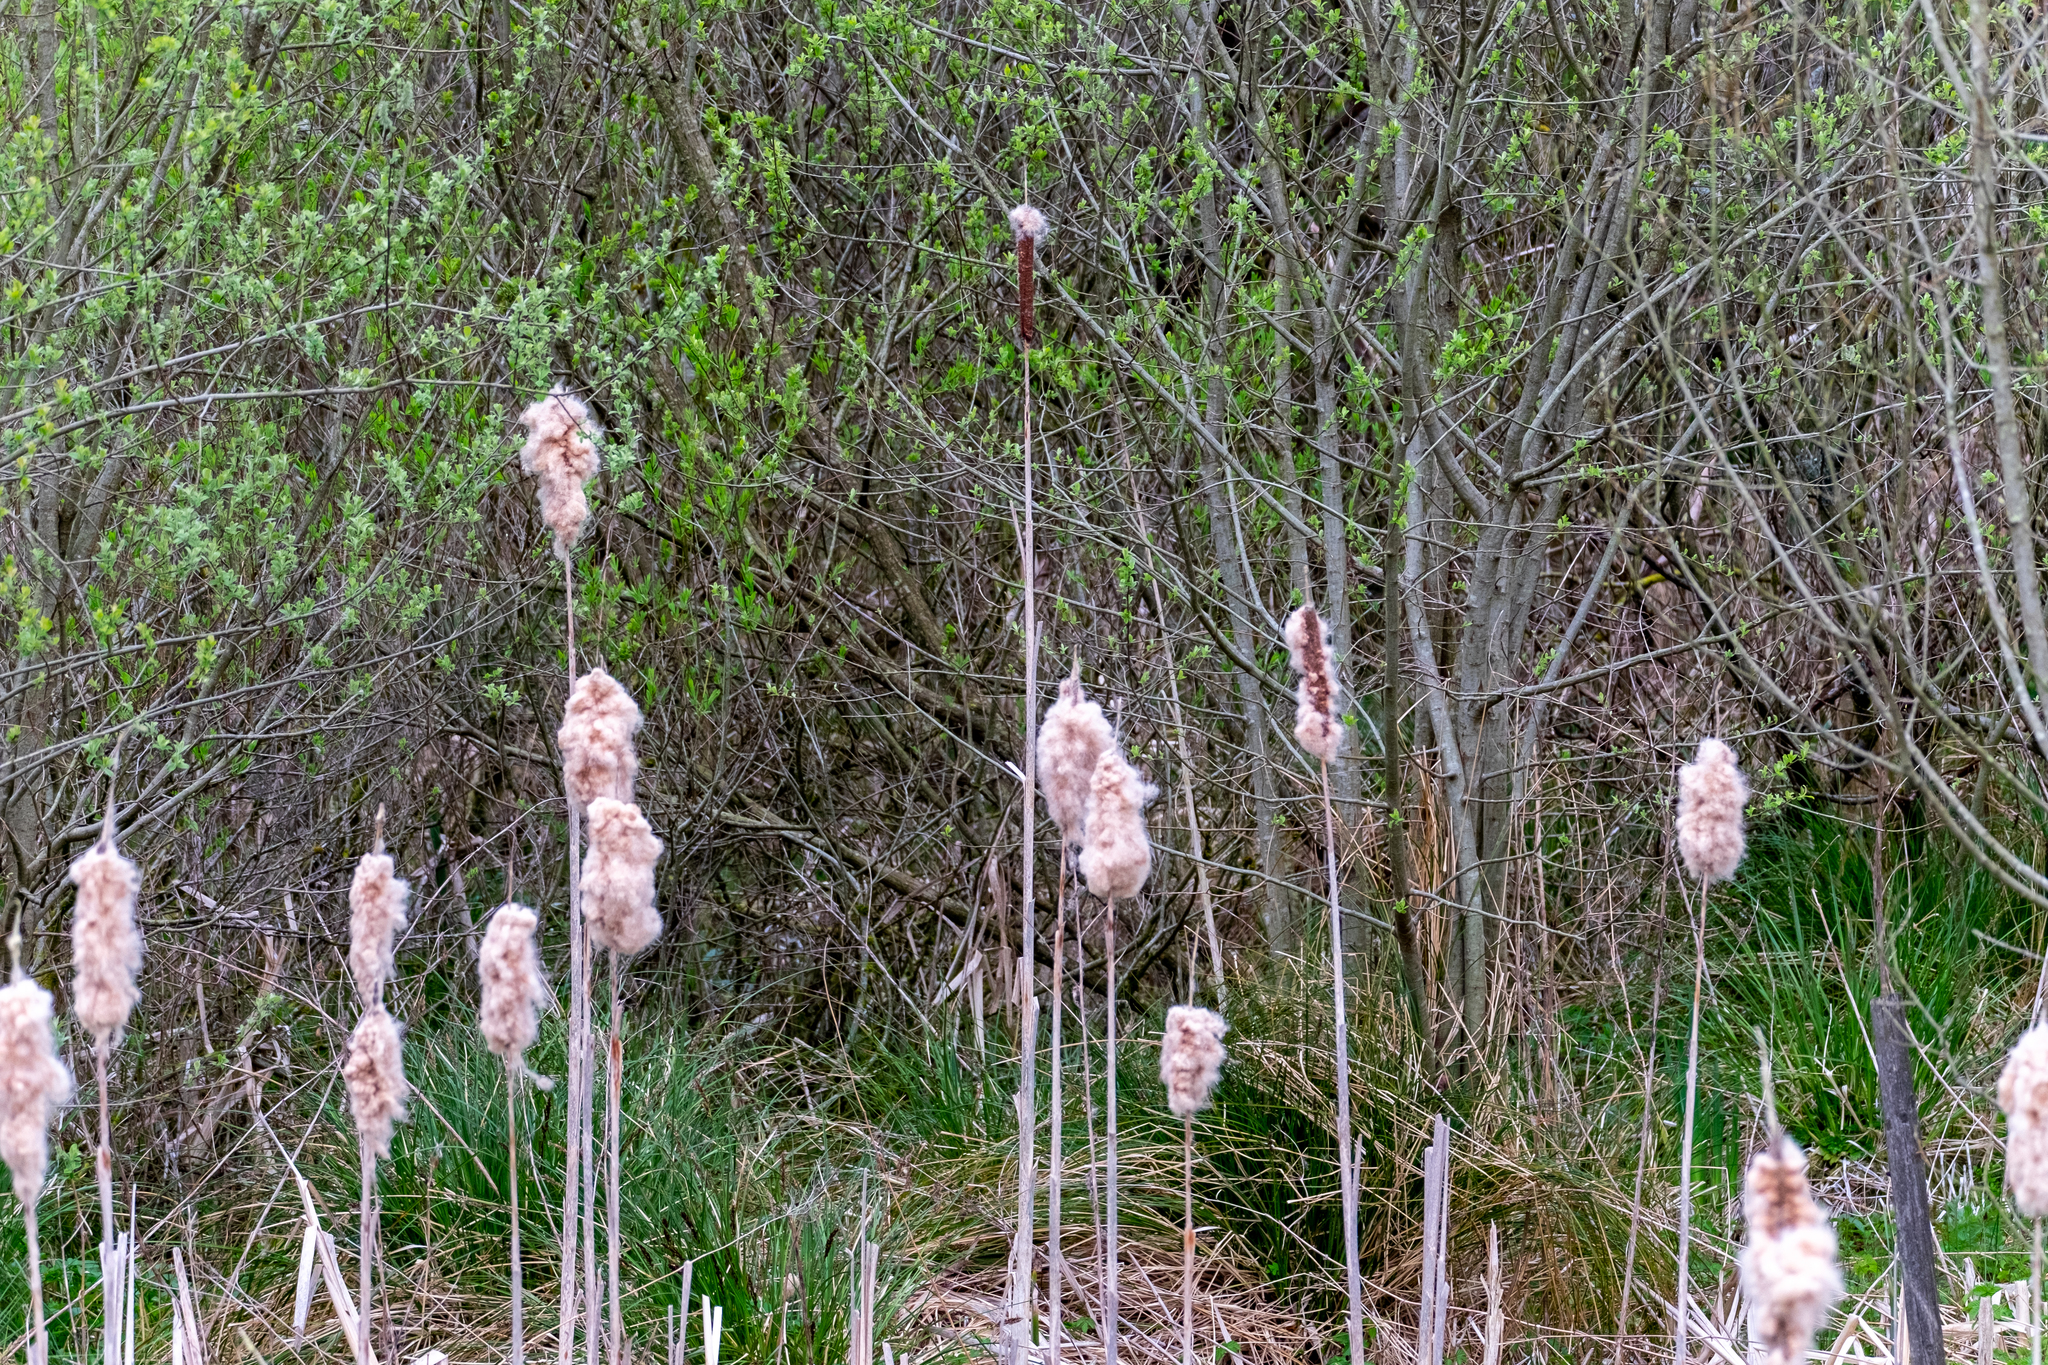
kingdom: Plantae
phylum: Tracheophyta
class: Liliopsida
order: Poales
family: Typhaceae
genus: Typha
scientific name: Typha latifolia
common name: Broadleaf cattail
